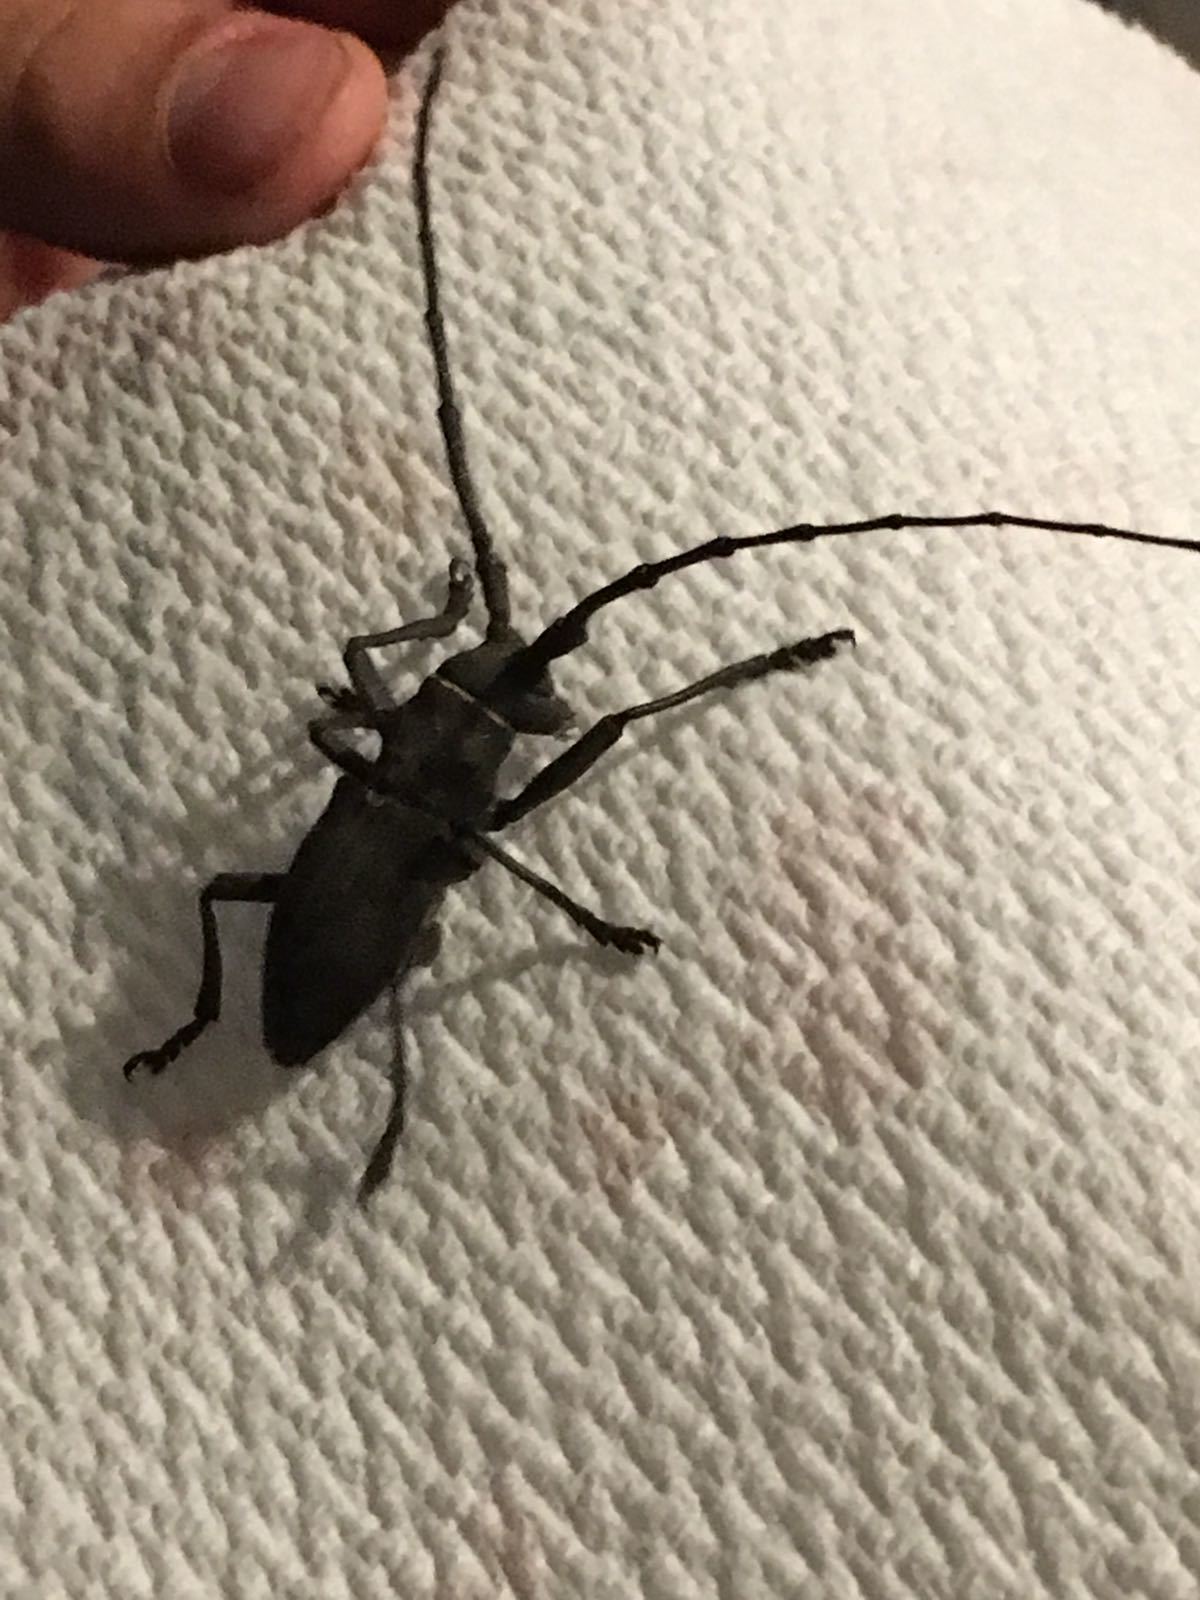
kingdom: Animalia
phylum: Arthropoda
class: Insecta
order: Coleoptera
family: Cerambycidae
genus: Morimus
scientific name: Morimus asper
